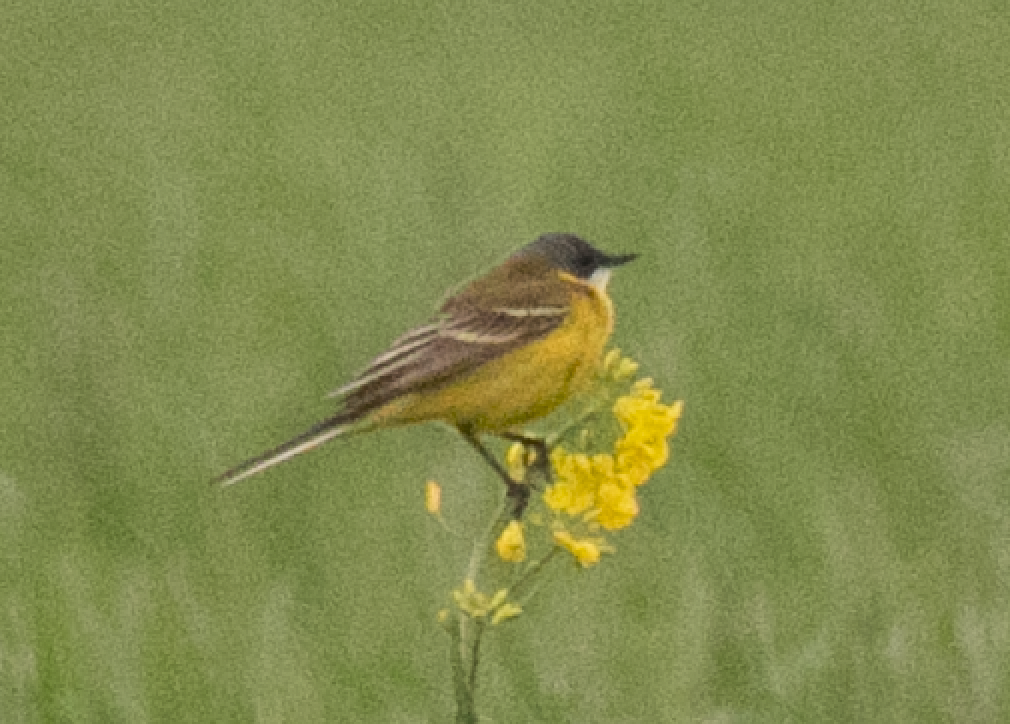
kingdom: Animalia
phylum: Chordata
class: Aves
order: Passeriformes
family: Motacillidae
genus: Motacilla
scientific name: Motacilla flava
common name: Western yellow wagtail
